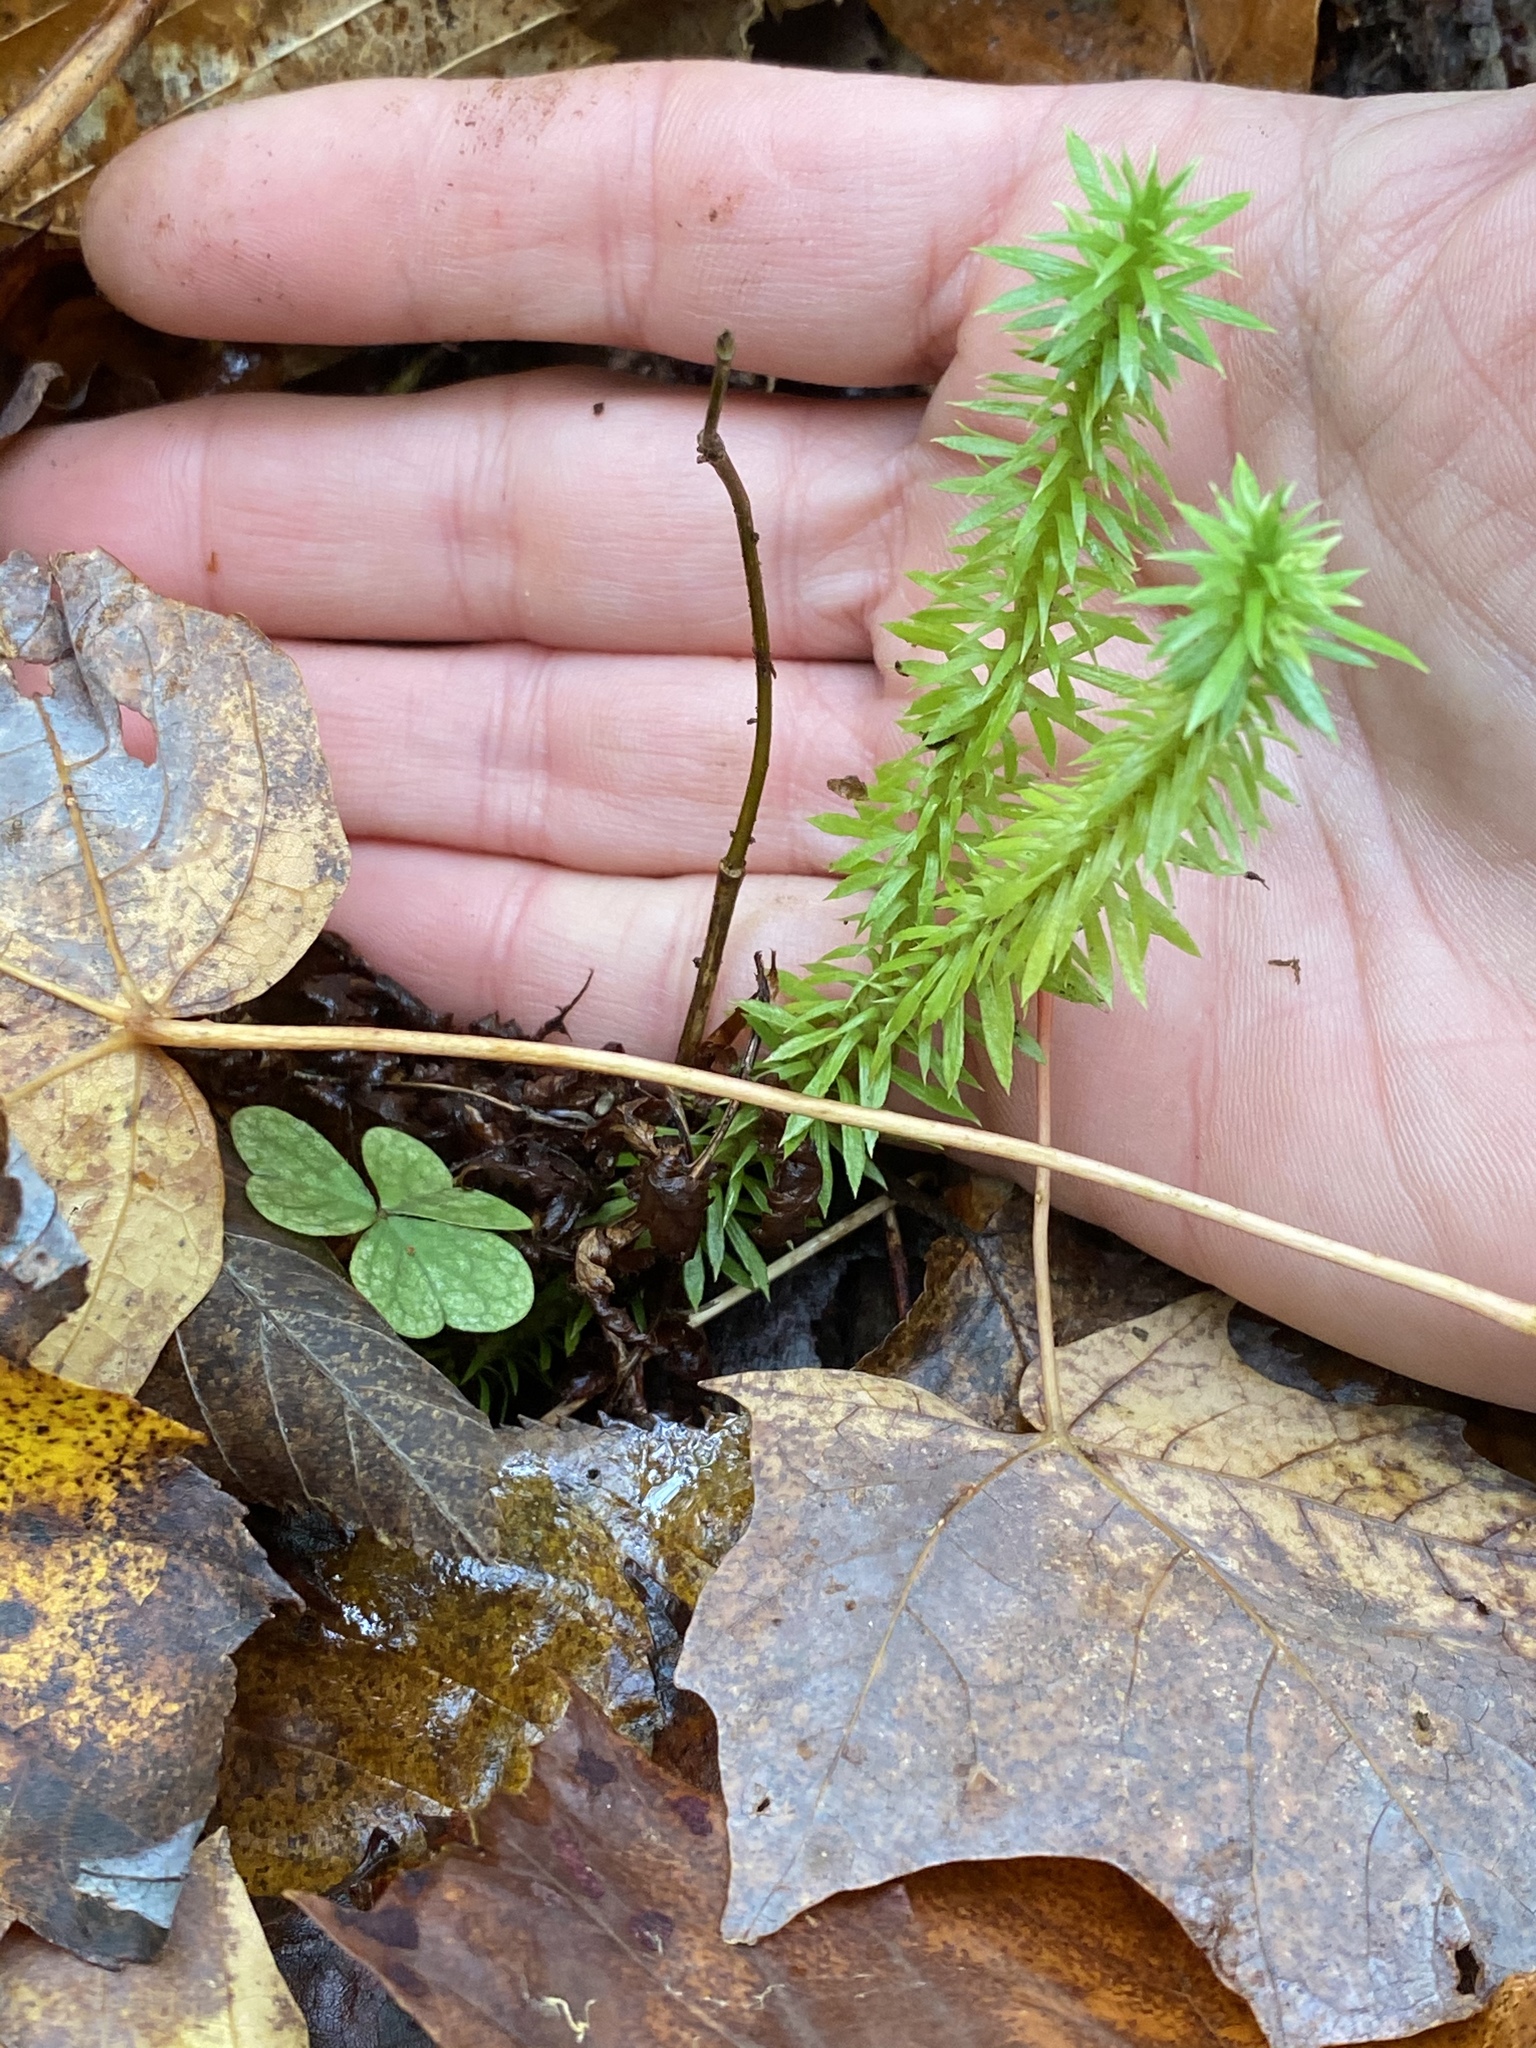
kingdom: Plantae
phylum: Tracheophyta
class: Lycopodiopsida
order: Lycopodiales
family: Lycopodiaceae
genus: Huperzia
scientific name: Huperzia lucidula
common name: Shining clubmoss
